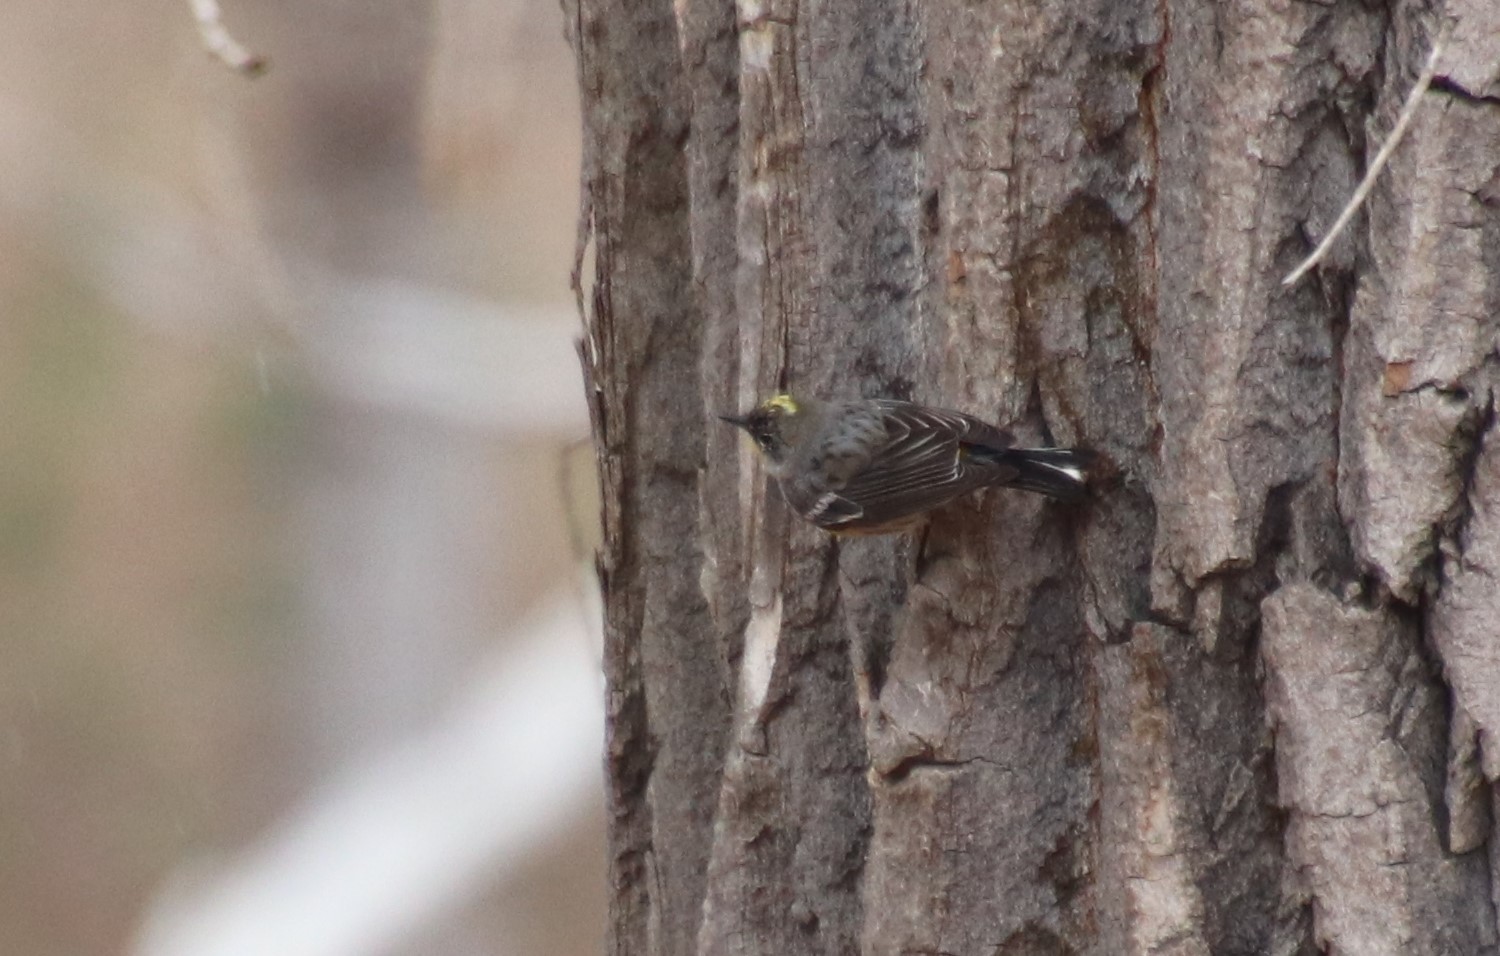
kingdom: Animalia
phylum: Chordata
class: Aves
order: Passeriformes
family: Parulidae
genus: Setophaga
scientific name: Setophaga coronata
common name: Myrtle warbler
